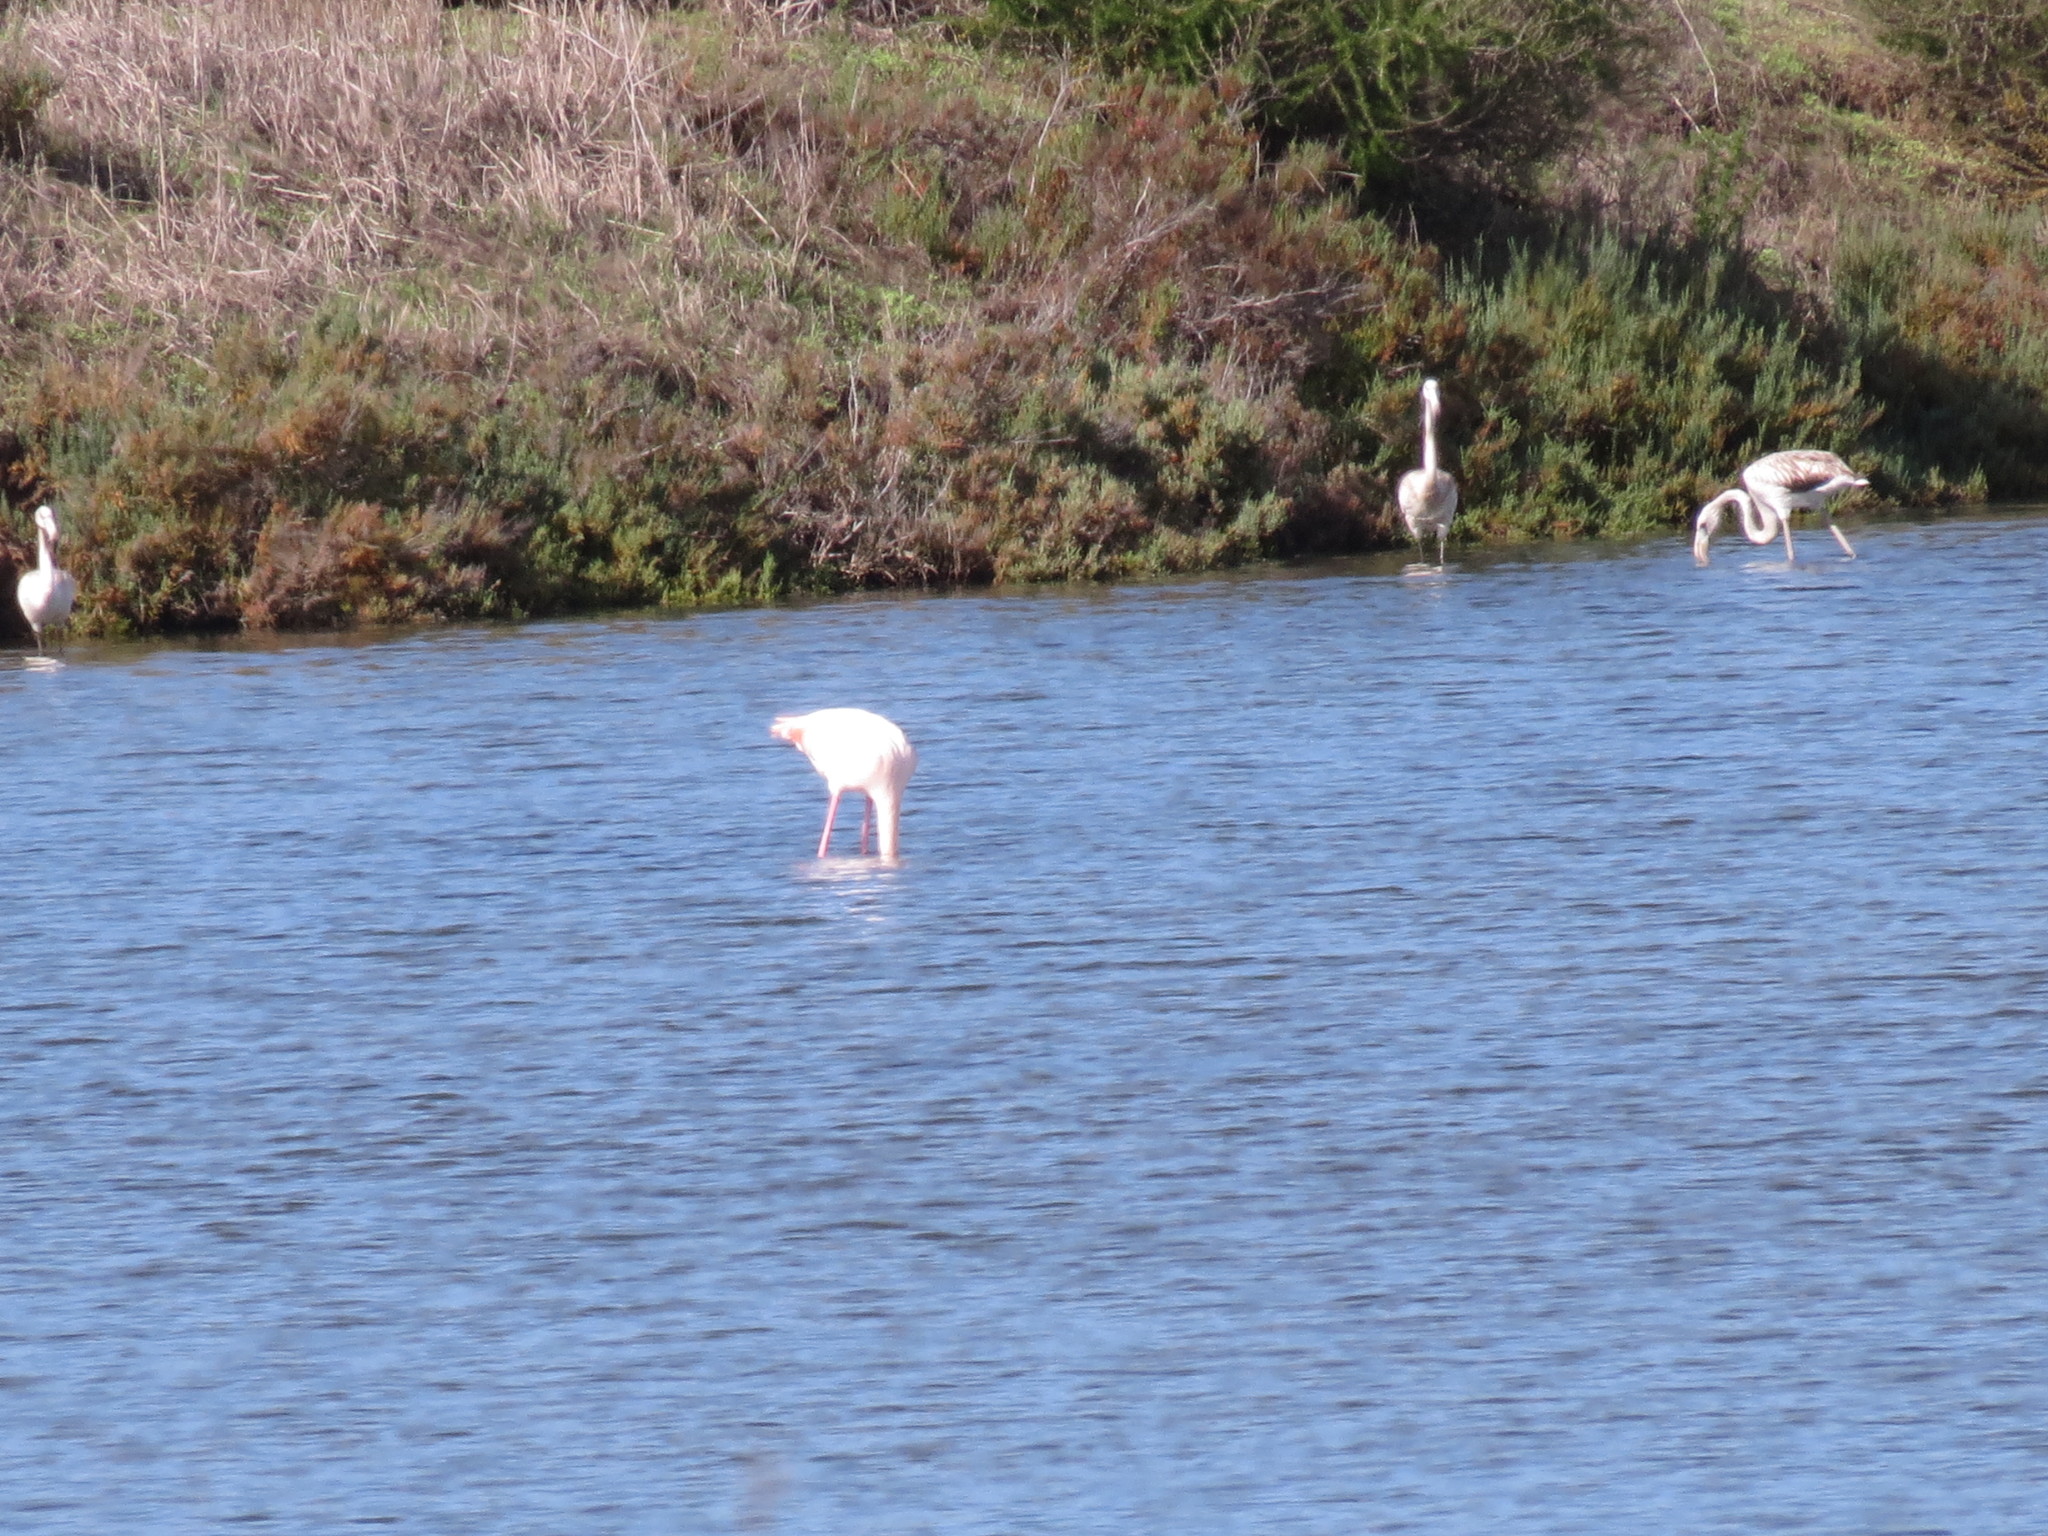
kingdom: Animalia
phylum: Chordata
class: Aves
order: Phoenicopteriformes
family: Phoenicopteridae
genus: Phoenicopterus
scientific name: Phoenicopterus roseus
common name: Greater flamingo
